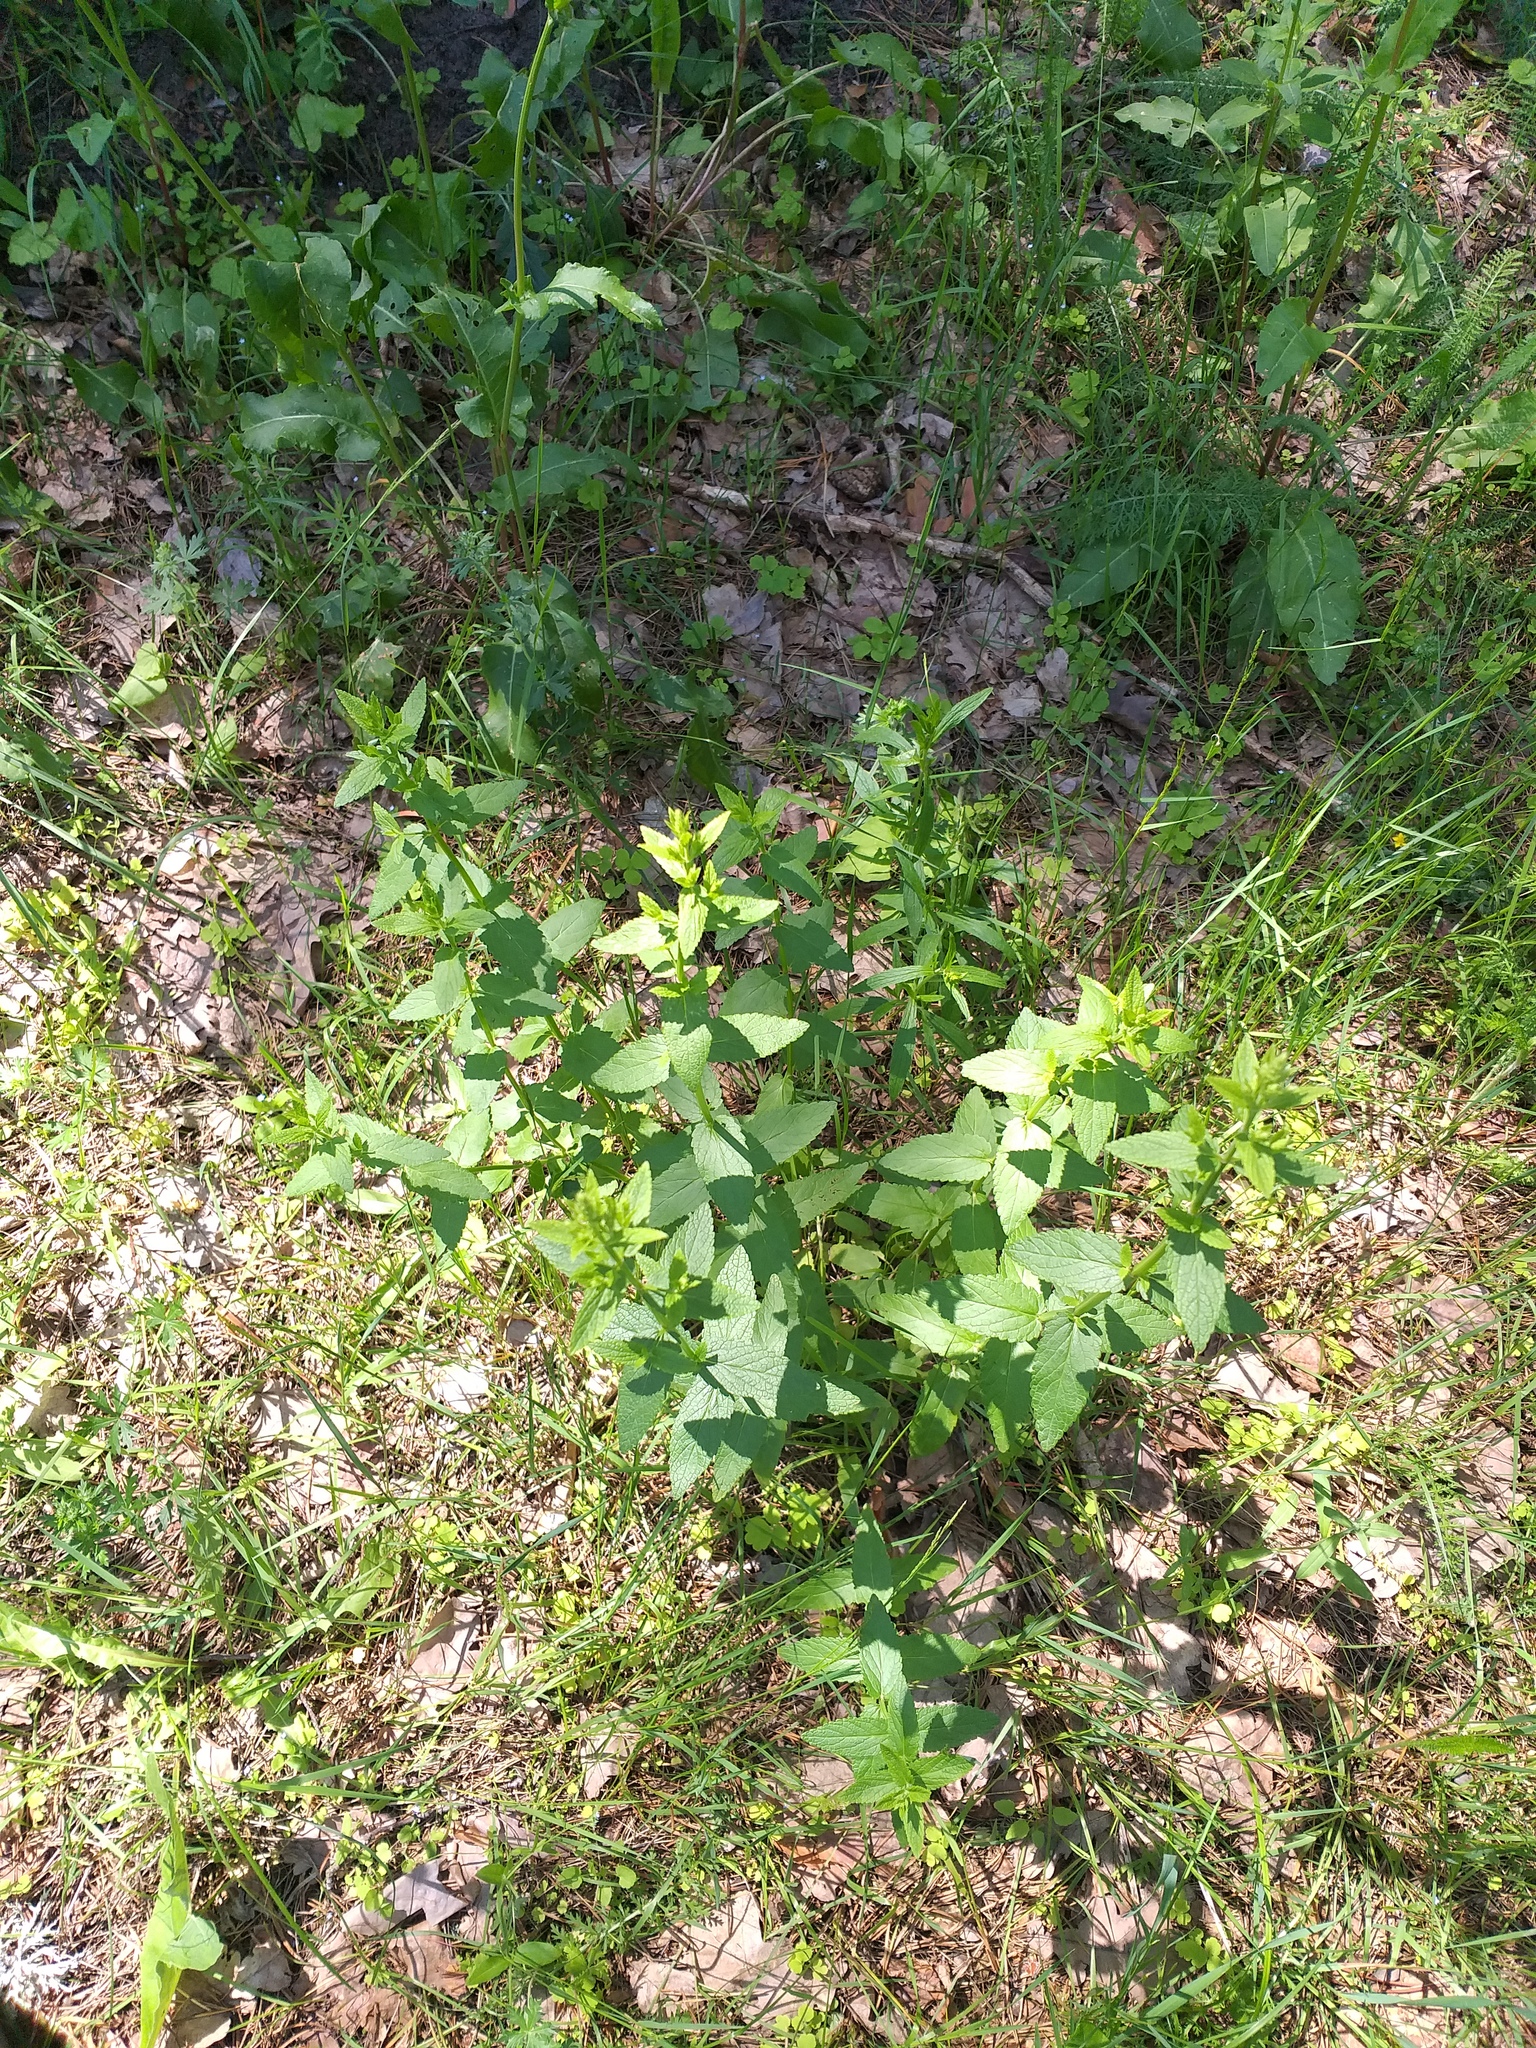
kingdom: Plantae
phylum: Tracheophyta
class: Magnoliopsida
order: Lamiales
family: Lamiaceae
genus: Nepeta
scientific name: Nepeta nuda
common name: Hairless catmint
